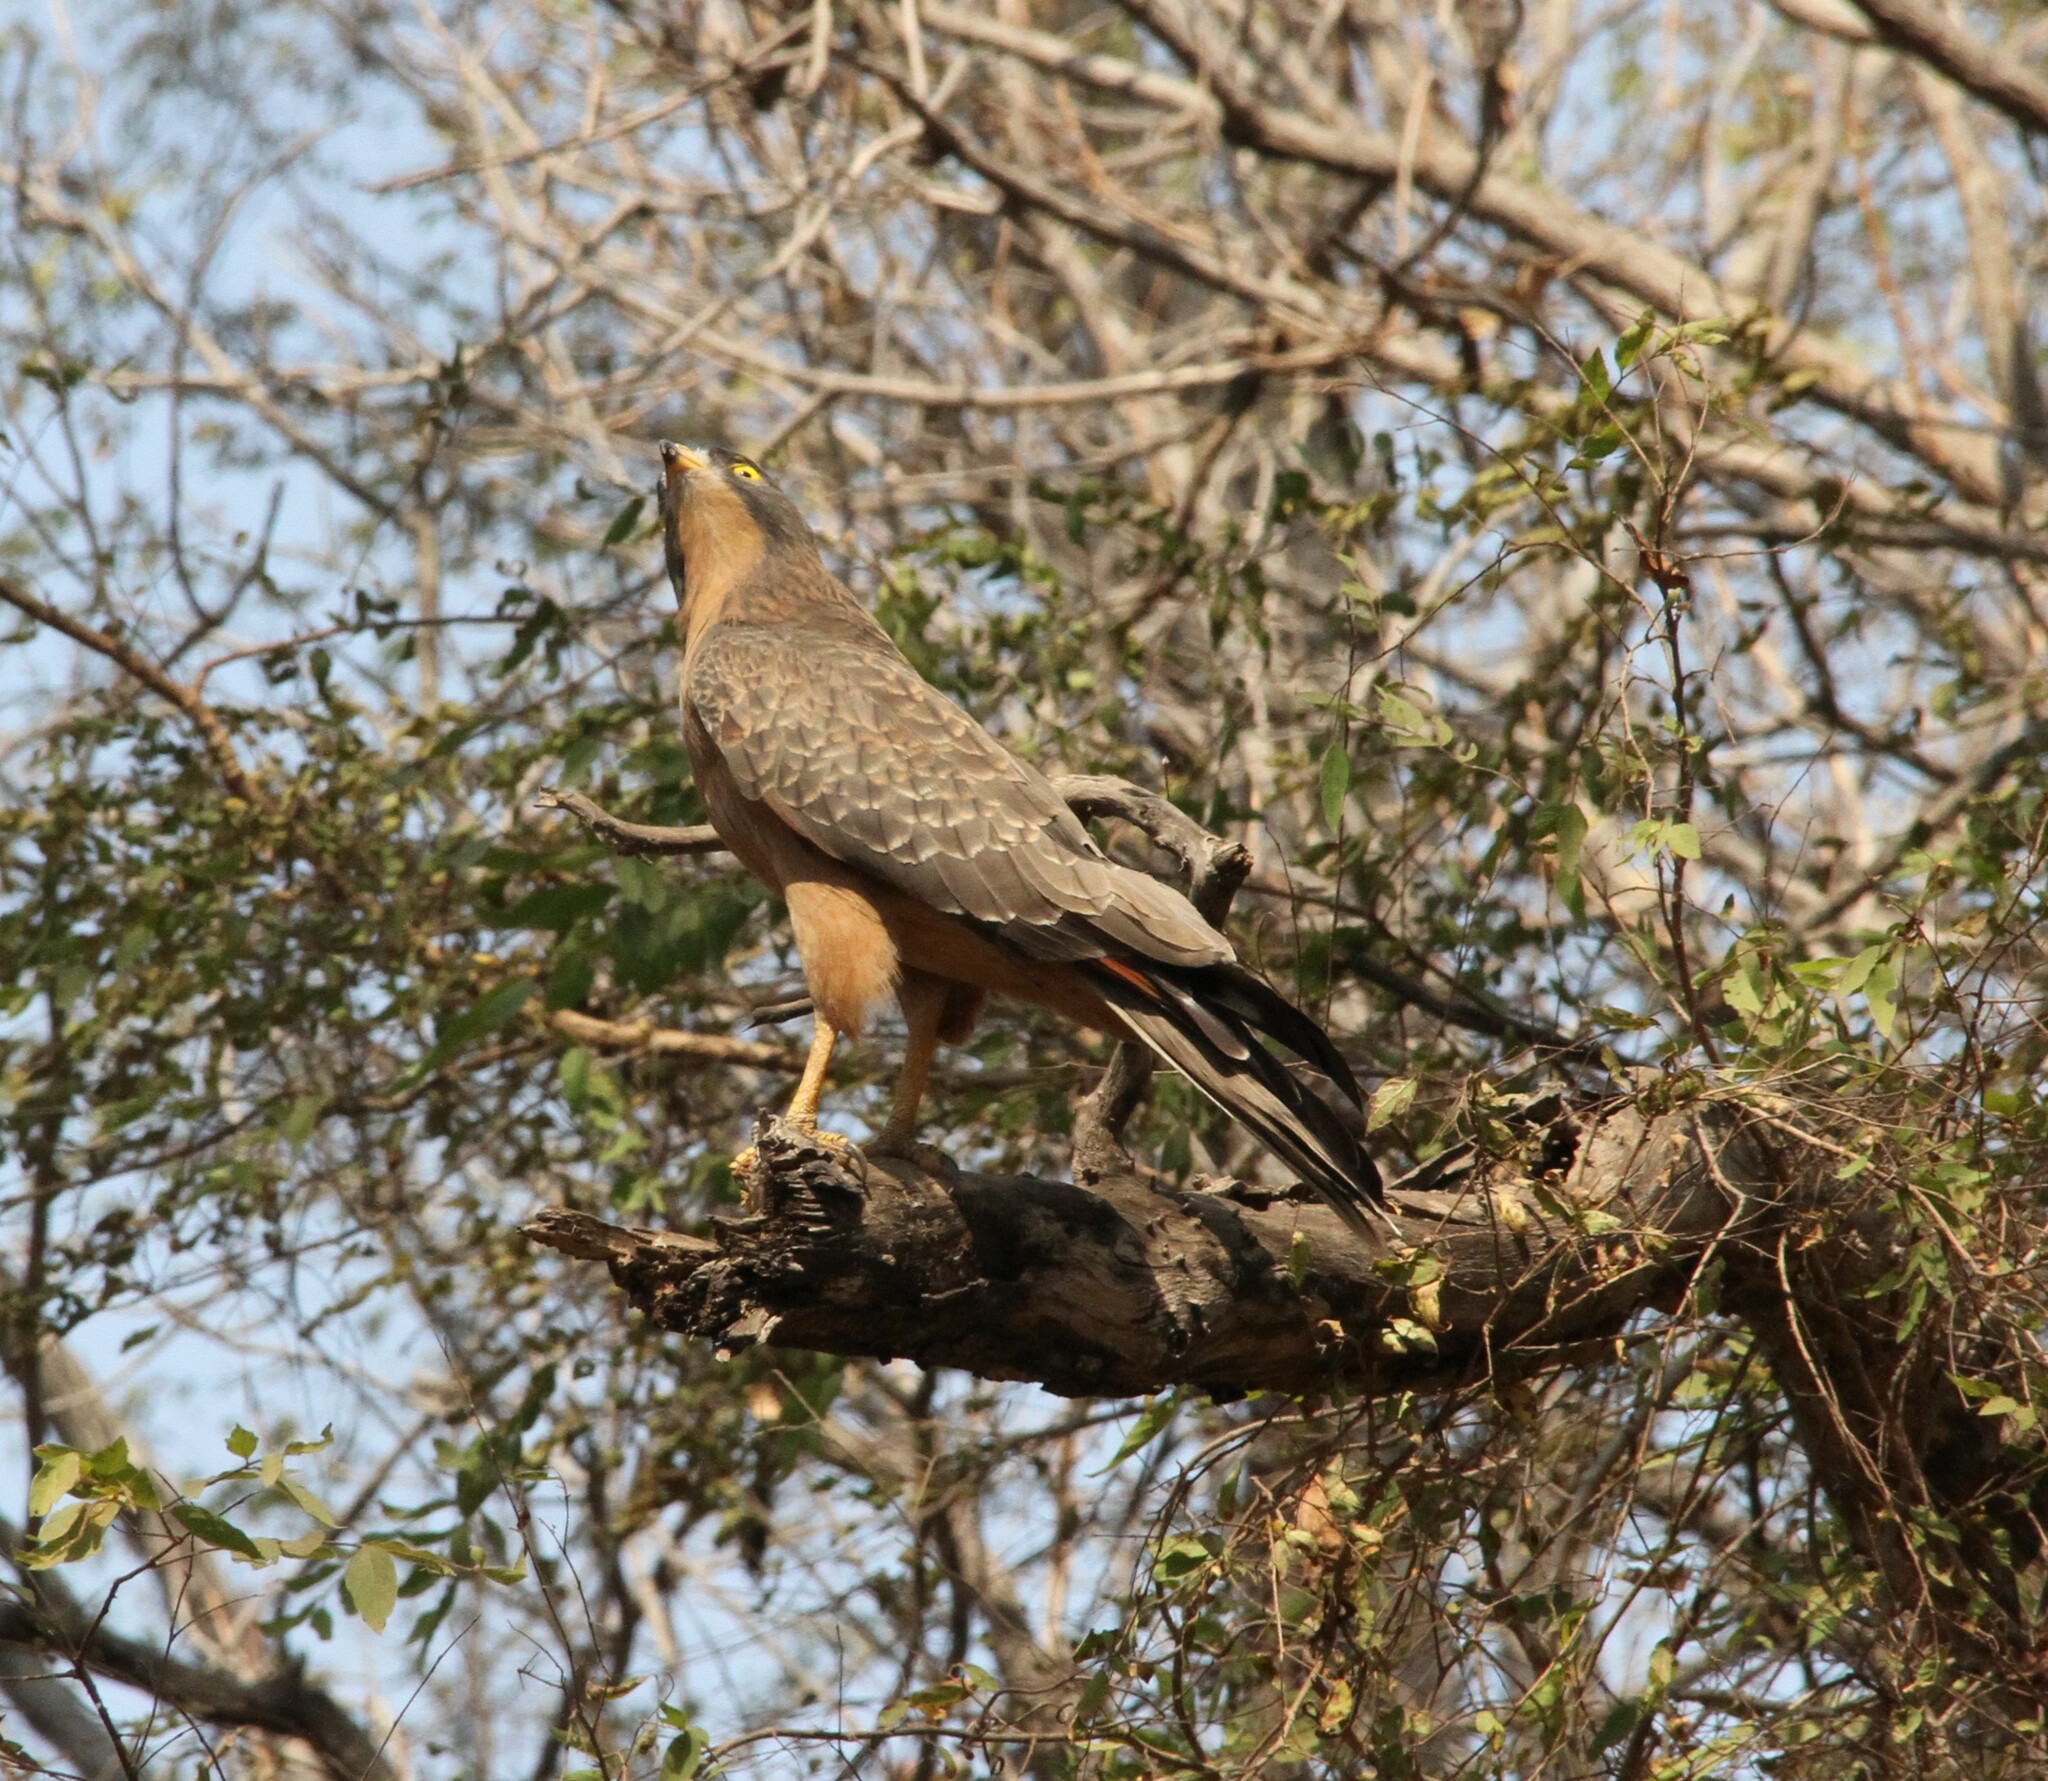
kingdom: Animalia
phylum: Chordata
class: Aves
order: Accipitriformes
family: Accipitridae
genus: Butastur
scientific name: Butastur rufipennis
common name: Grasshopper buzzard
